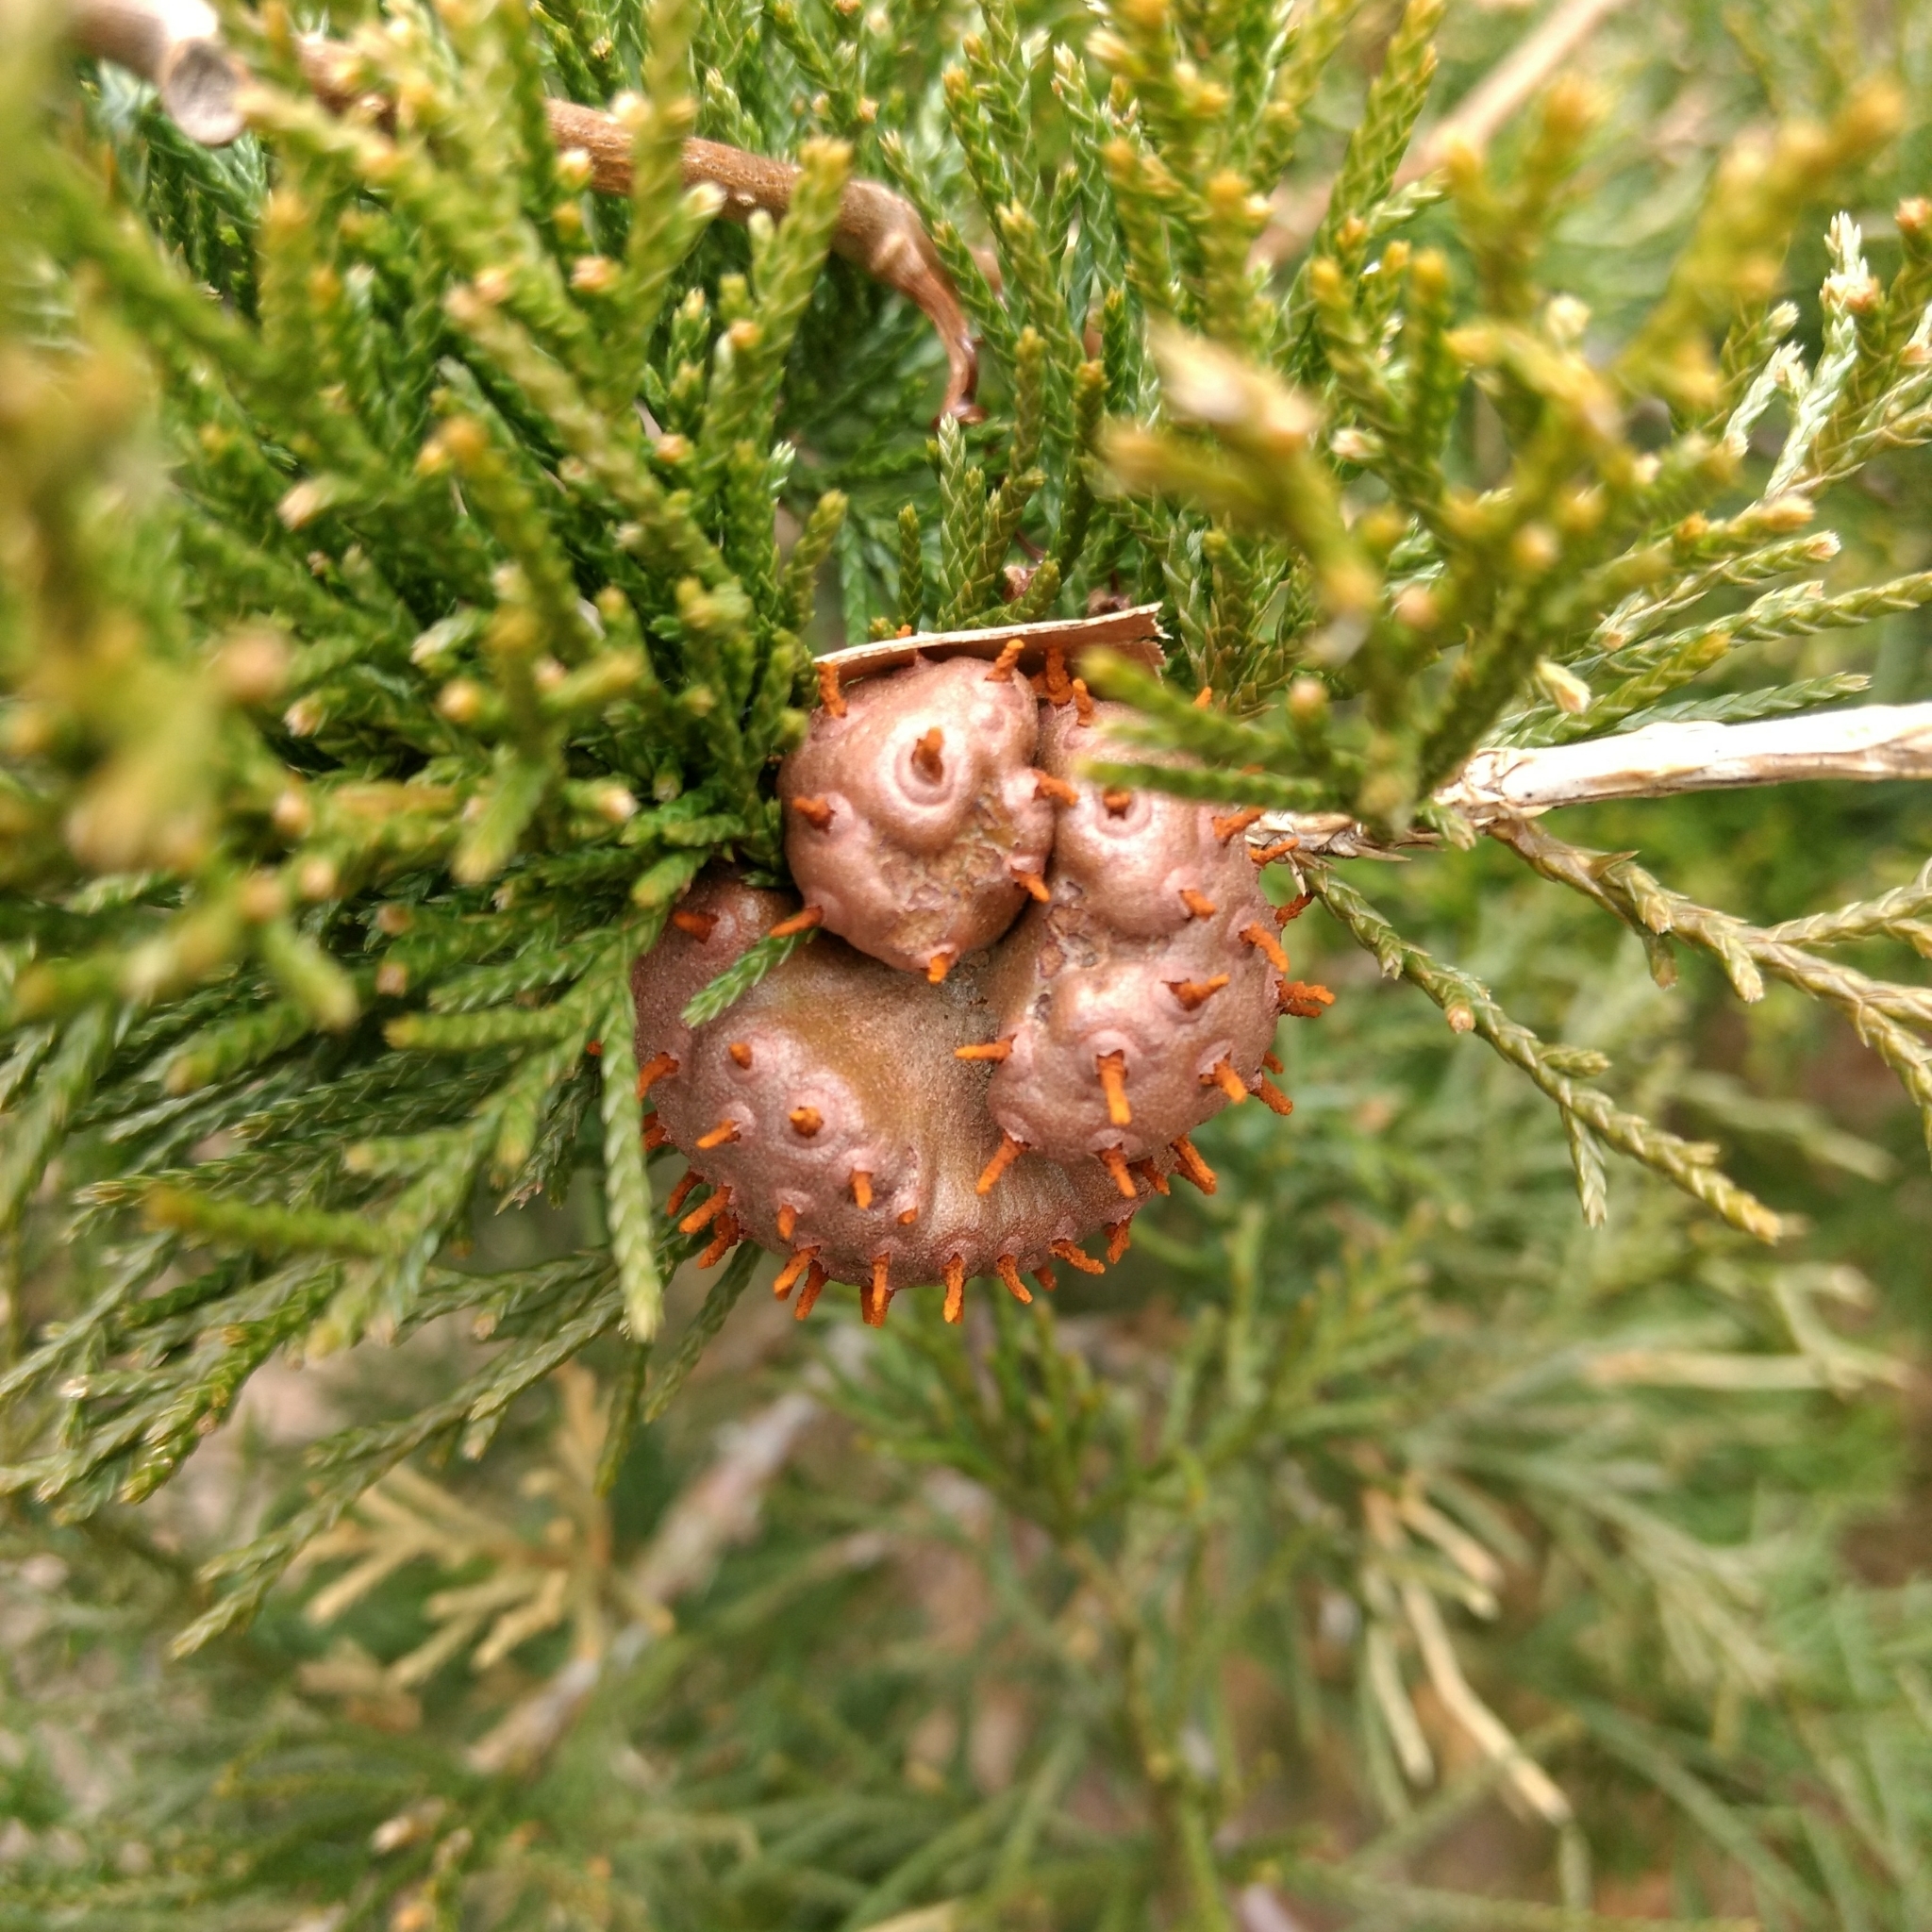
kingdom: Fungi
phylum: Basidiomycota
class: Pucciniomycetes
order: Pucciniales
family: Gymnosporangiaceae
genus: Gymnosporangium
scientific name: Gymnosporangium juniperi-virginianae
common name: Juniper-apple rust
